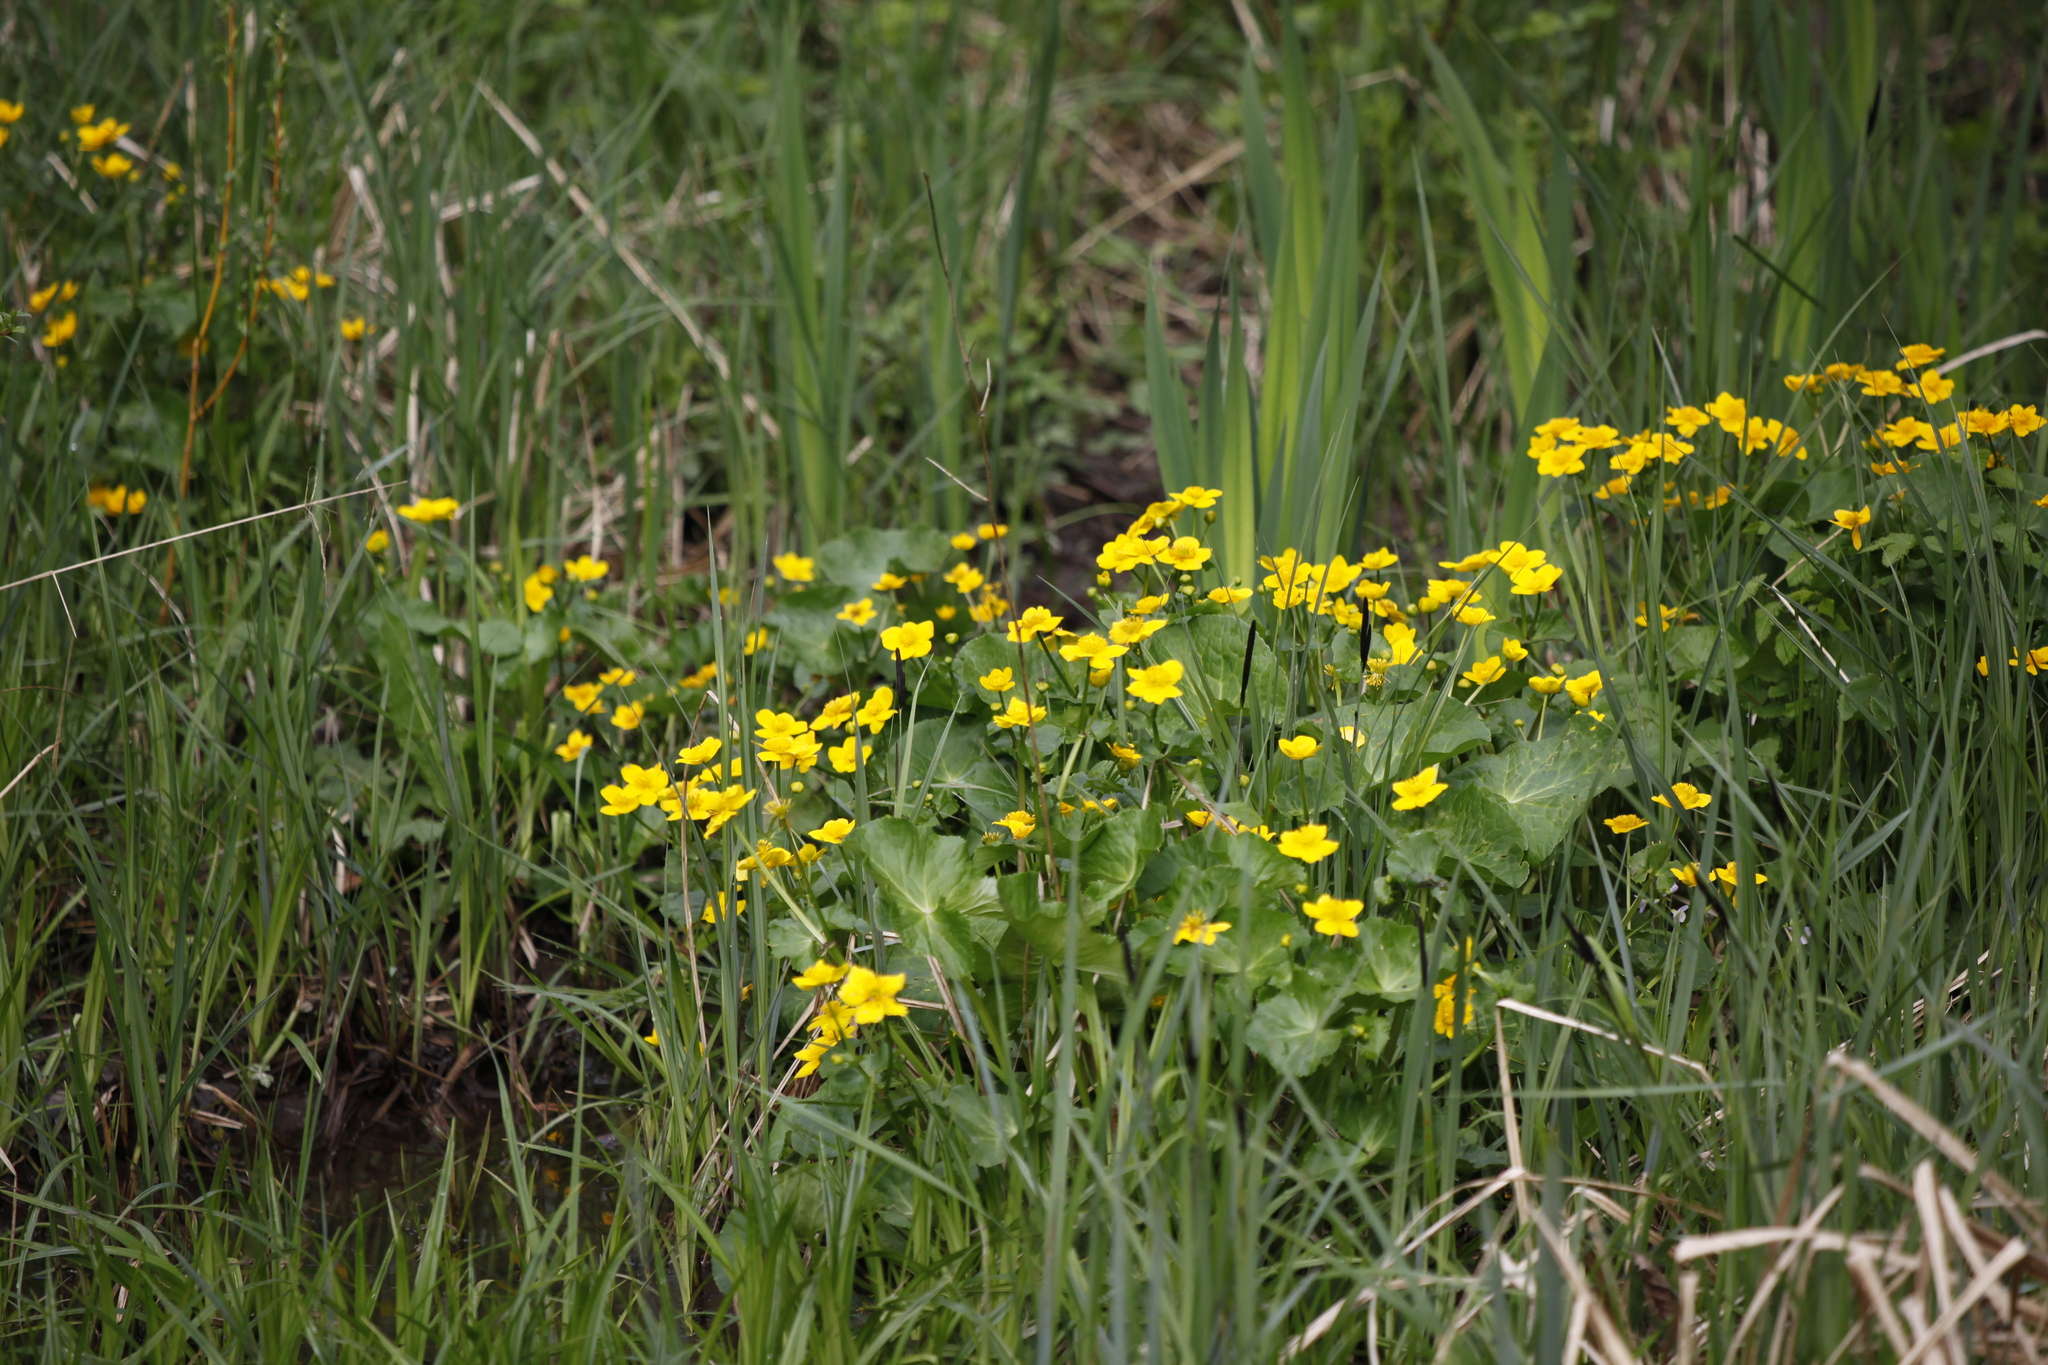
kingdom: Plantae
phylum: Tracheophyta
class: Magnoliopsida
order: Ranunculales
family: Ranunculaceae
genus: Caltha
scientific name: Caltha palustris
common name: Marsh marigold
